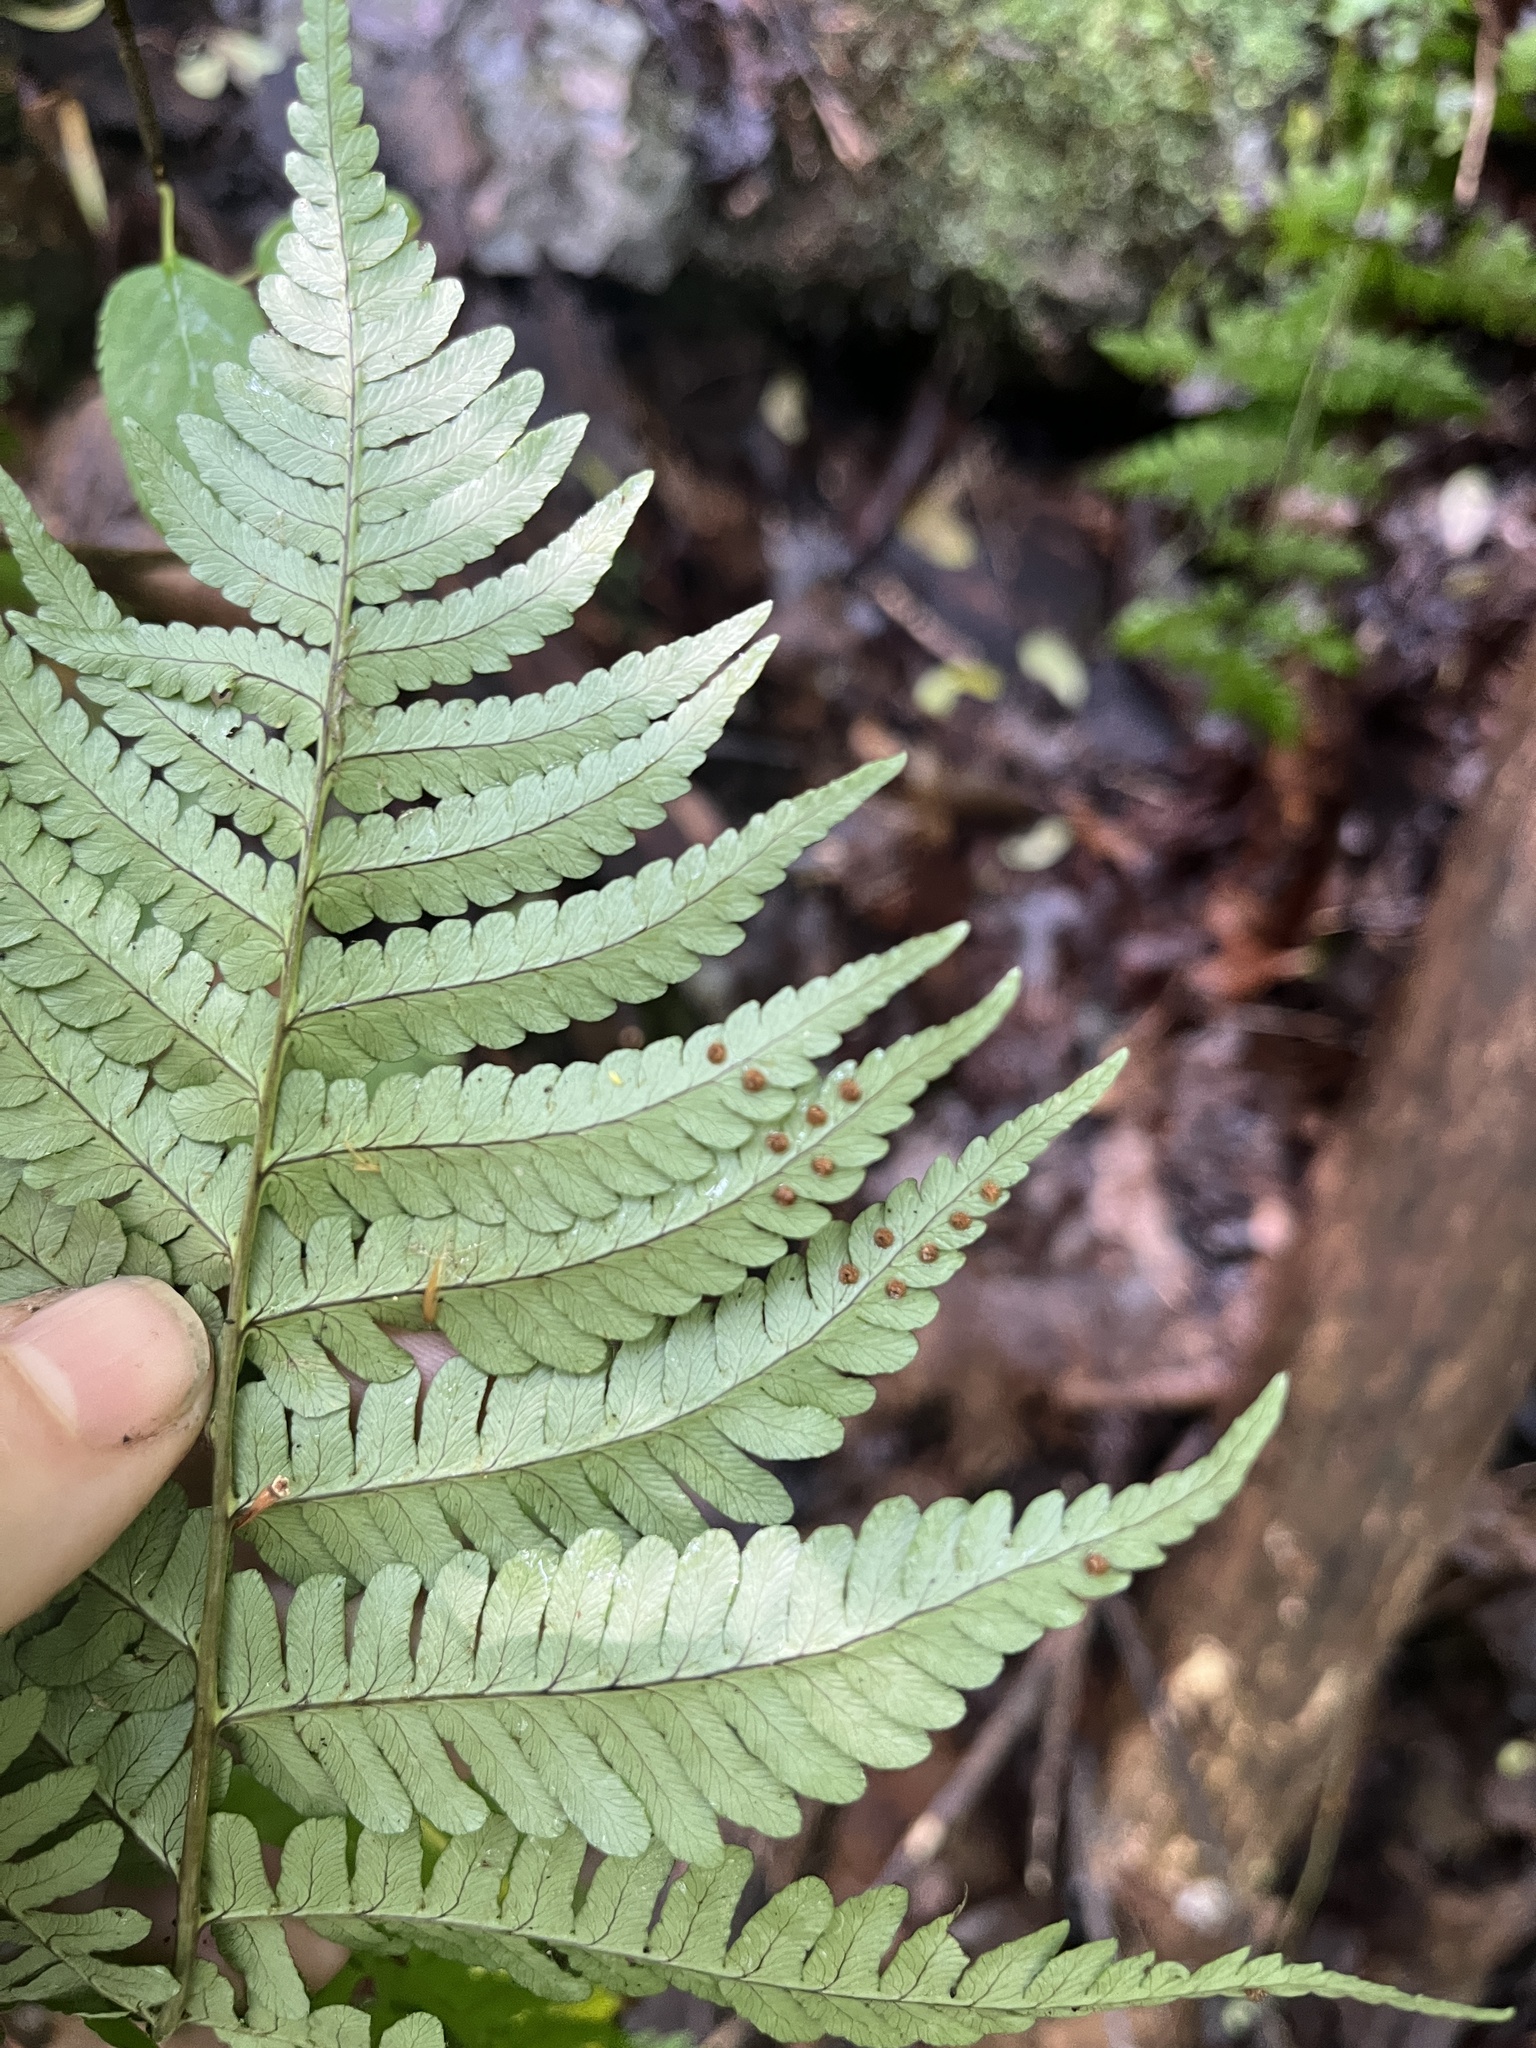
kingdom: Plantae
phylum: Tracheophyta
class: Polypodiopsida
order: Polypodiales
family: Dryopteridaceae
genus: Dryopteris
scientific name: Dryopteris marginalis
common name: Marginal wood fern
